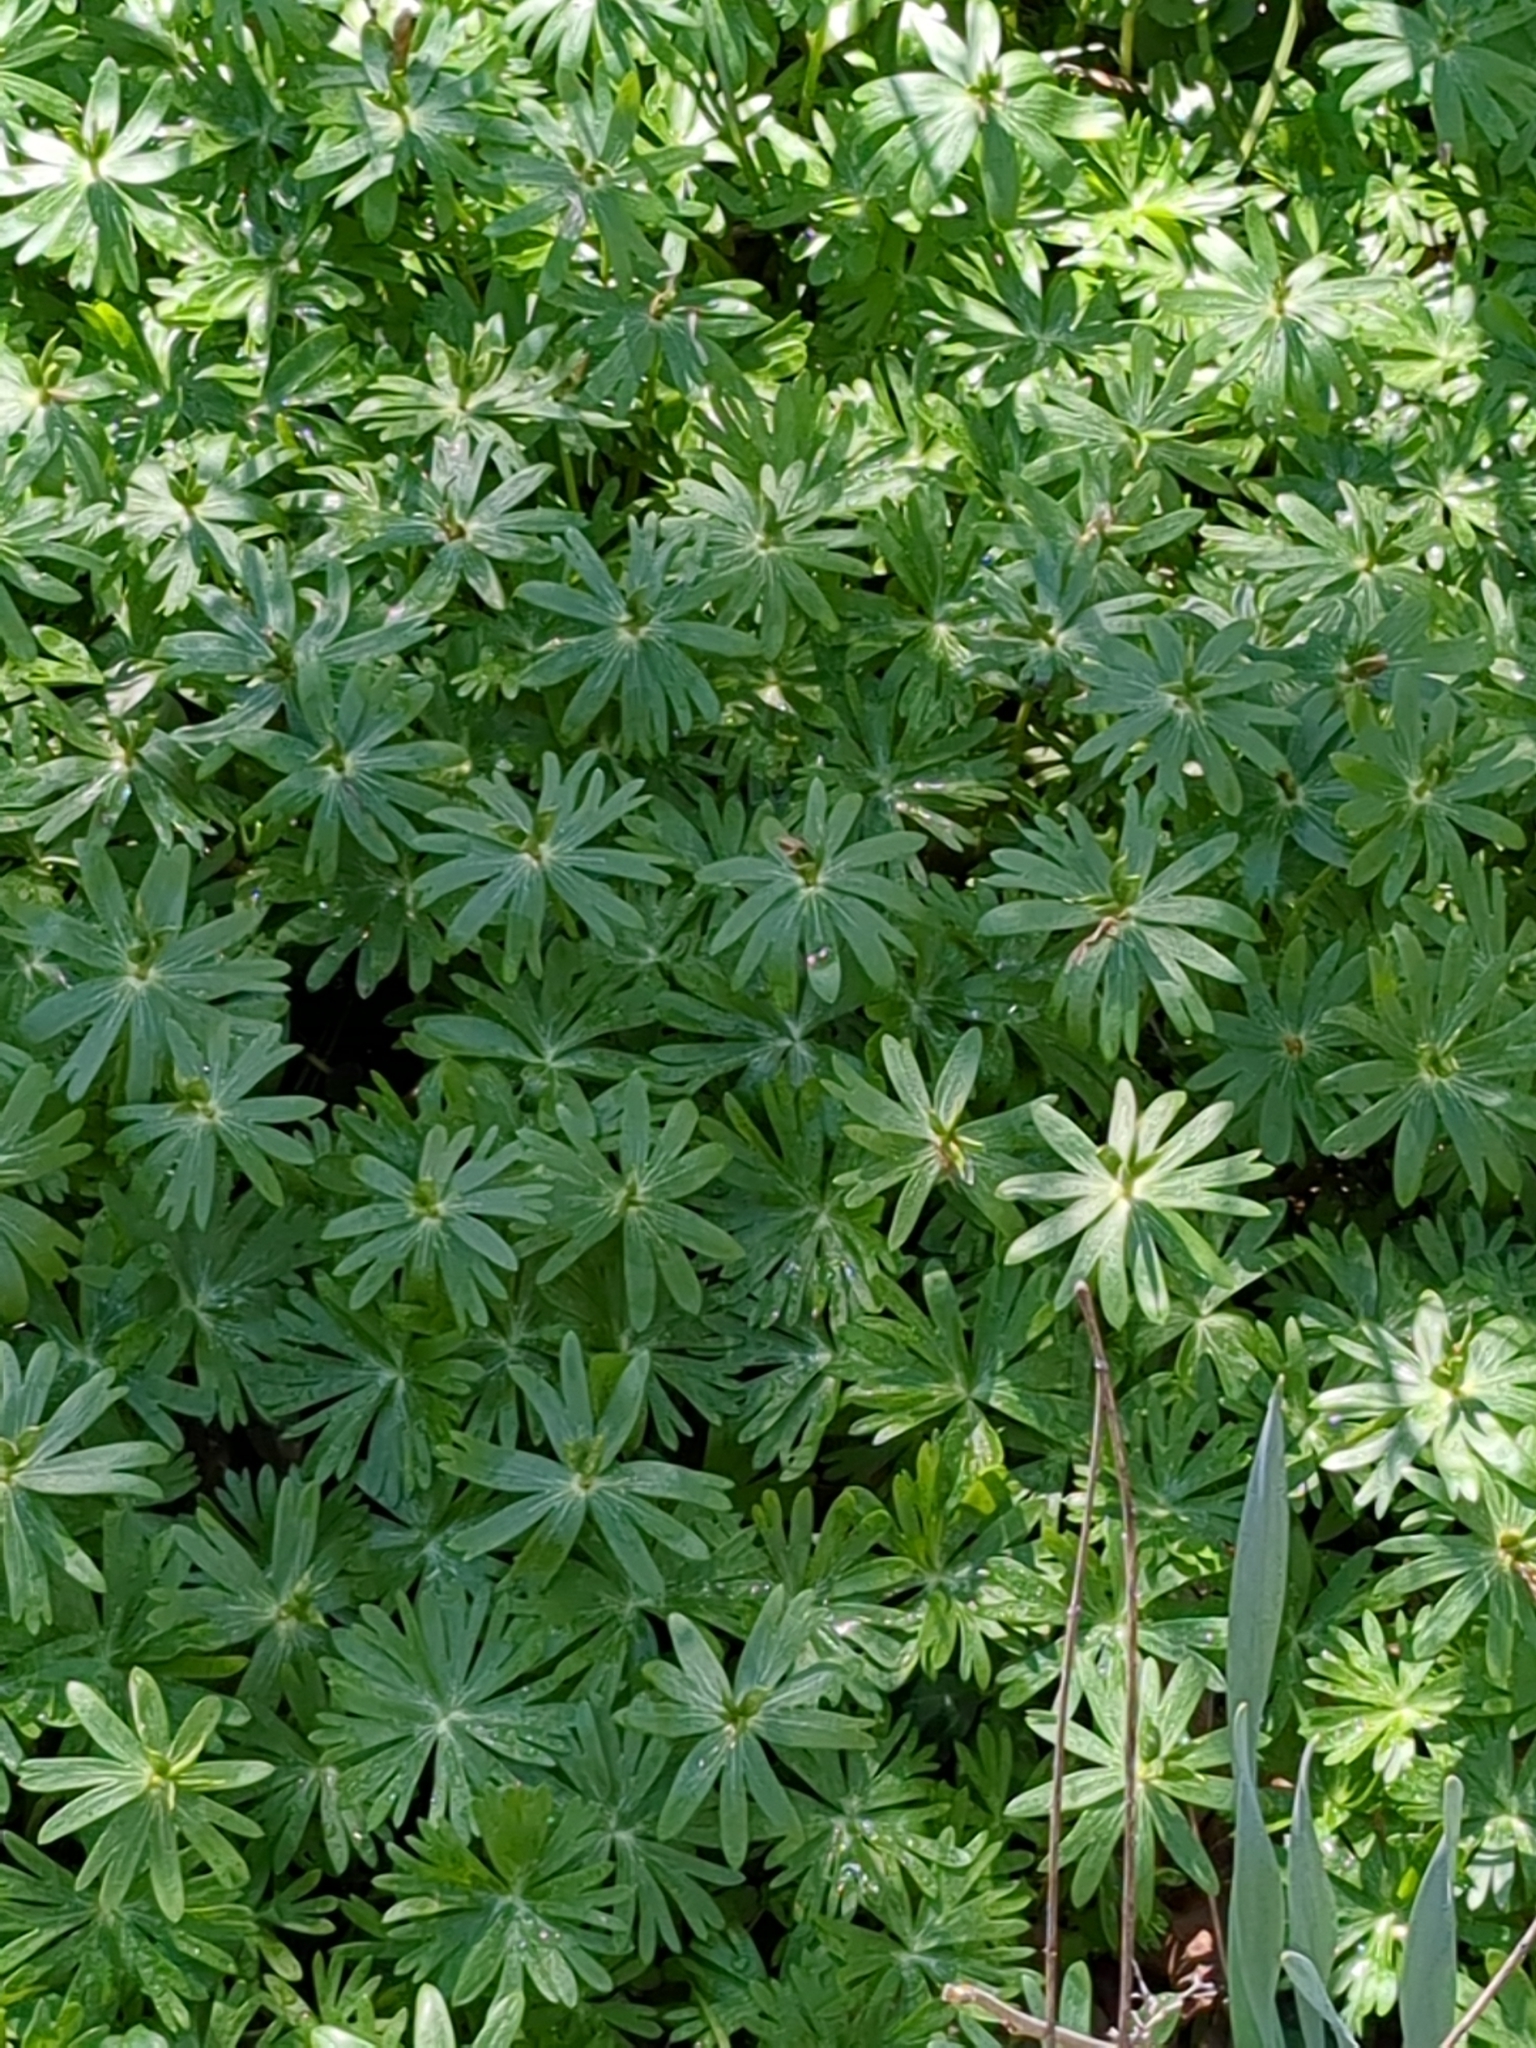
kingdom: Plantae
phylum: Tracheophyta
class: Magnoliopsida
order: Ranunculales
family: Ranunculaceae
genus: Eranthis
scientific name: Eranthis hyemalis
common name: Winter aconite
